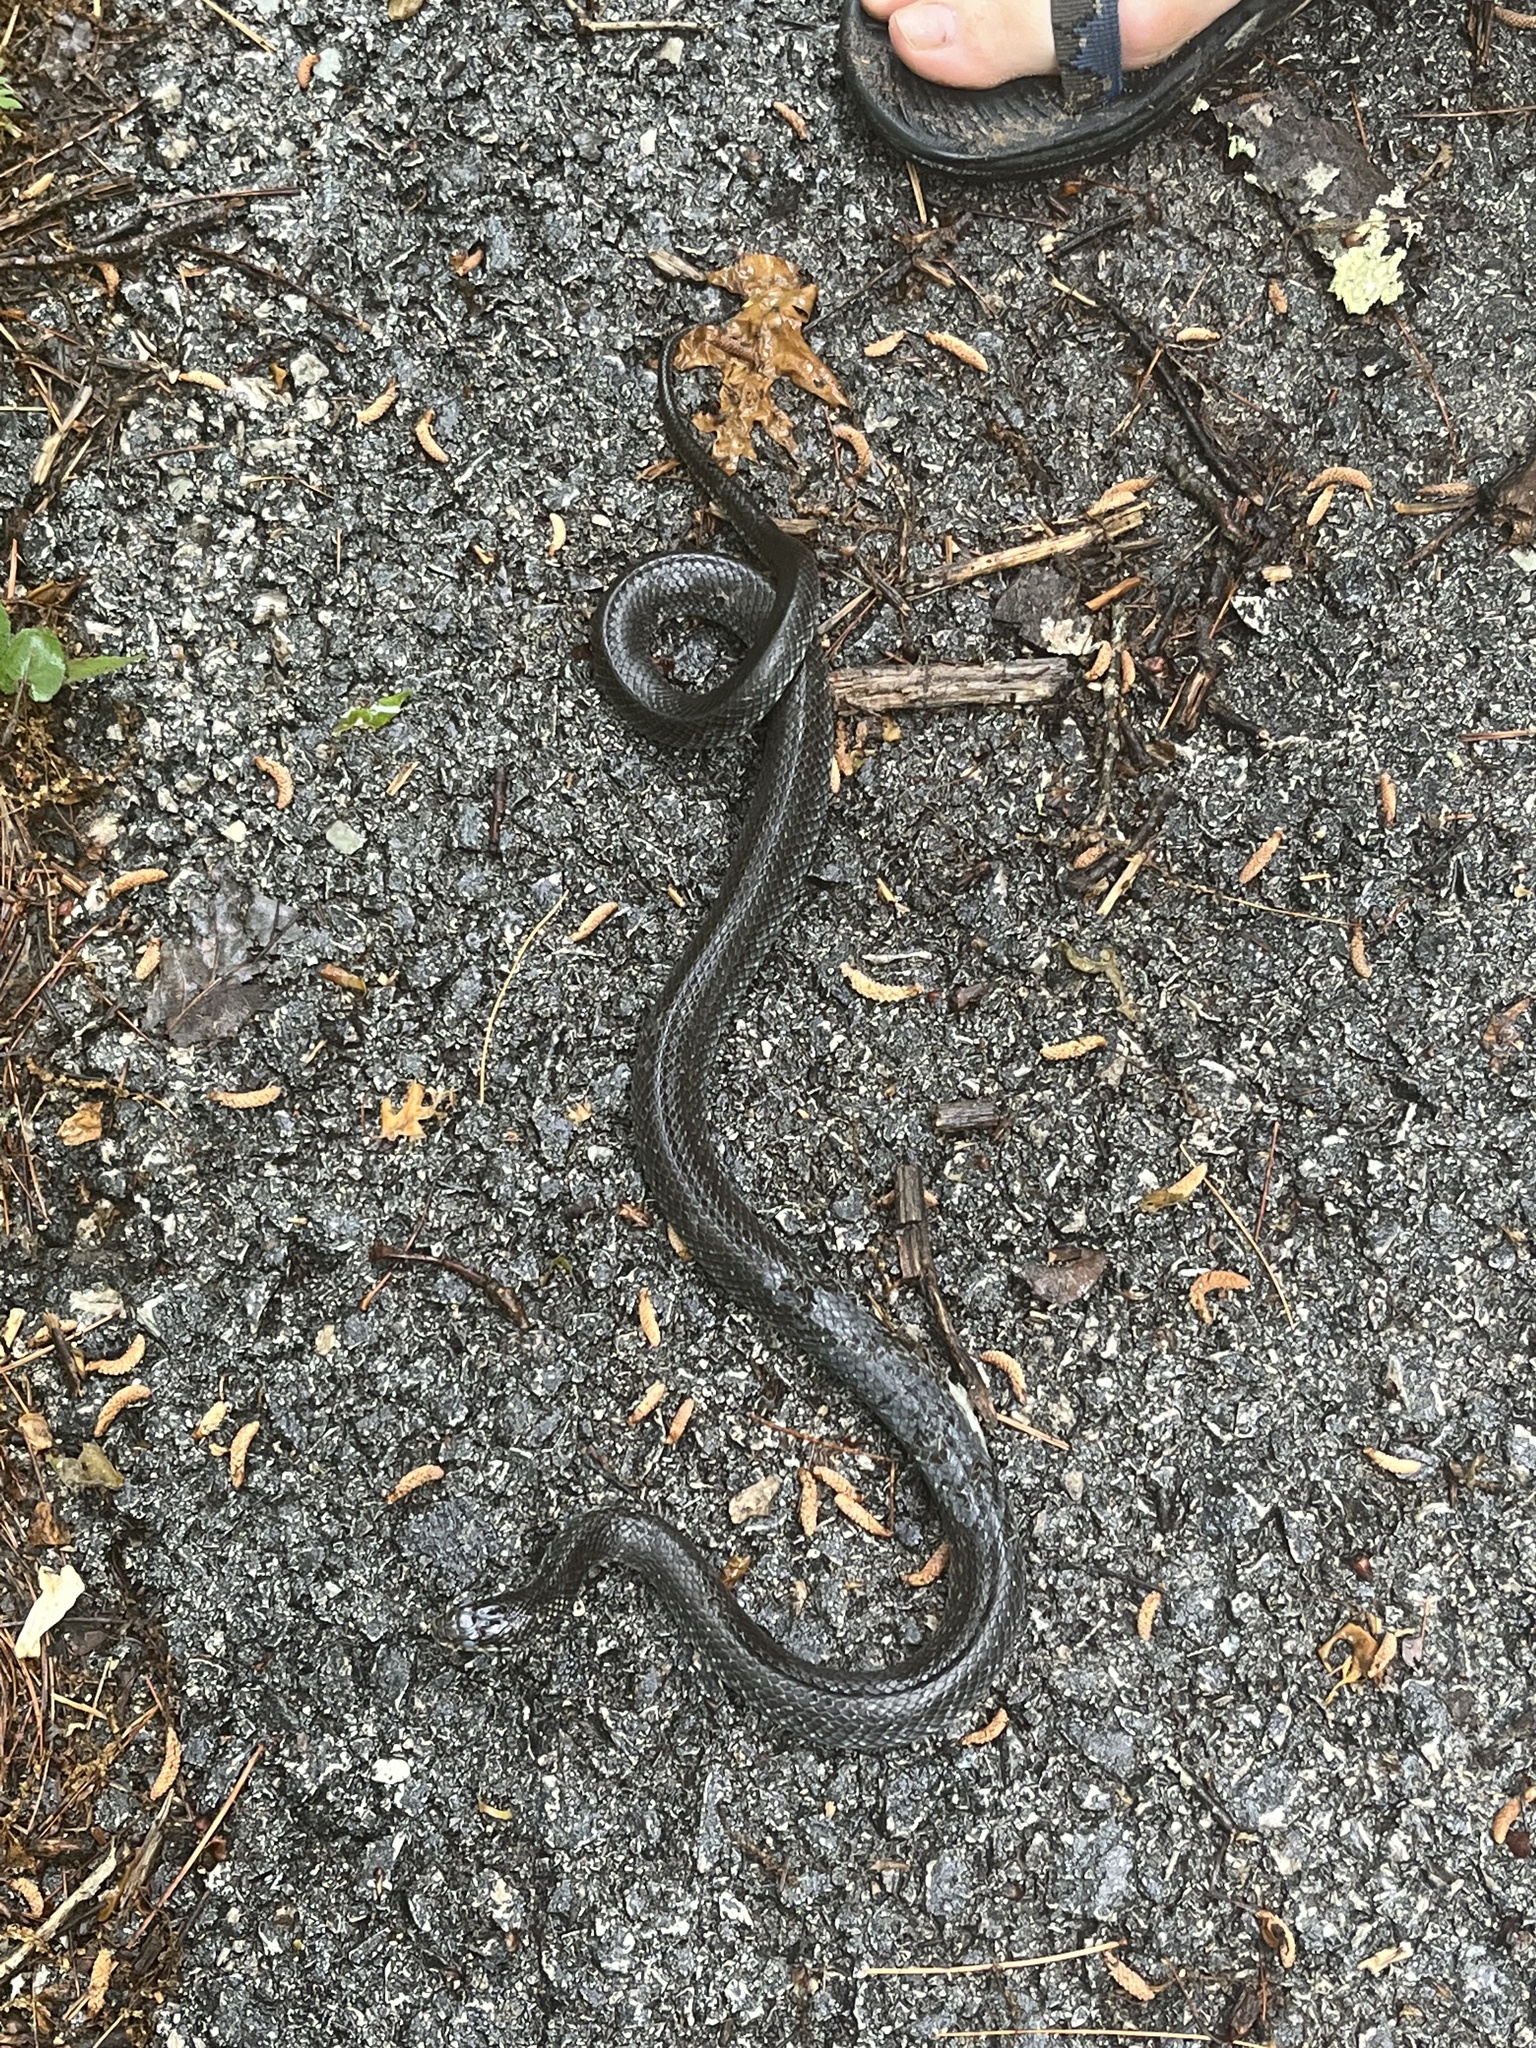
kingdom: Animalia
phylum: Chordata
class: Squamata
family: Colubridae
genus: Lampropeltis
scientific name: Lampropeltis nigra
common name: Black kingsnake
